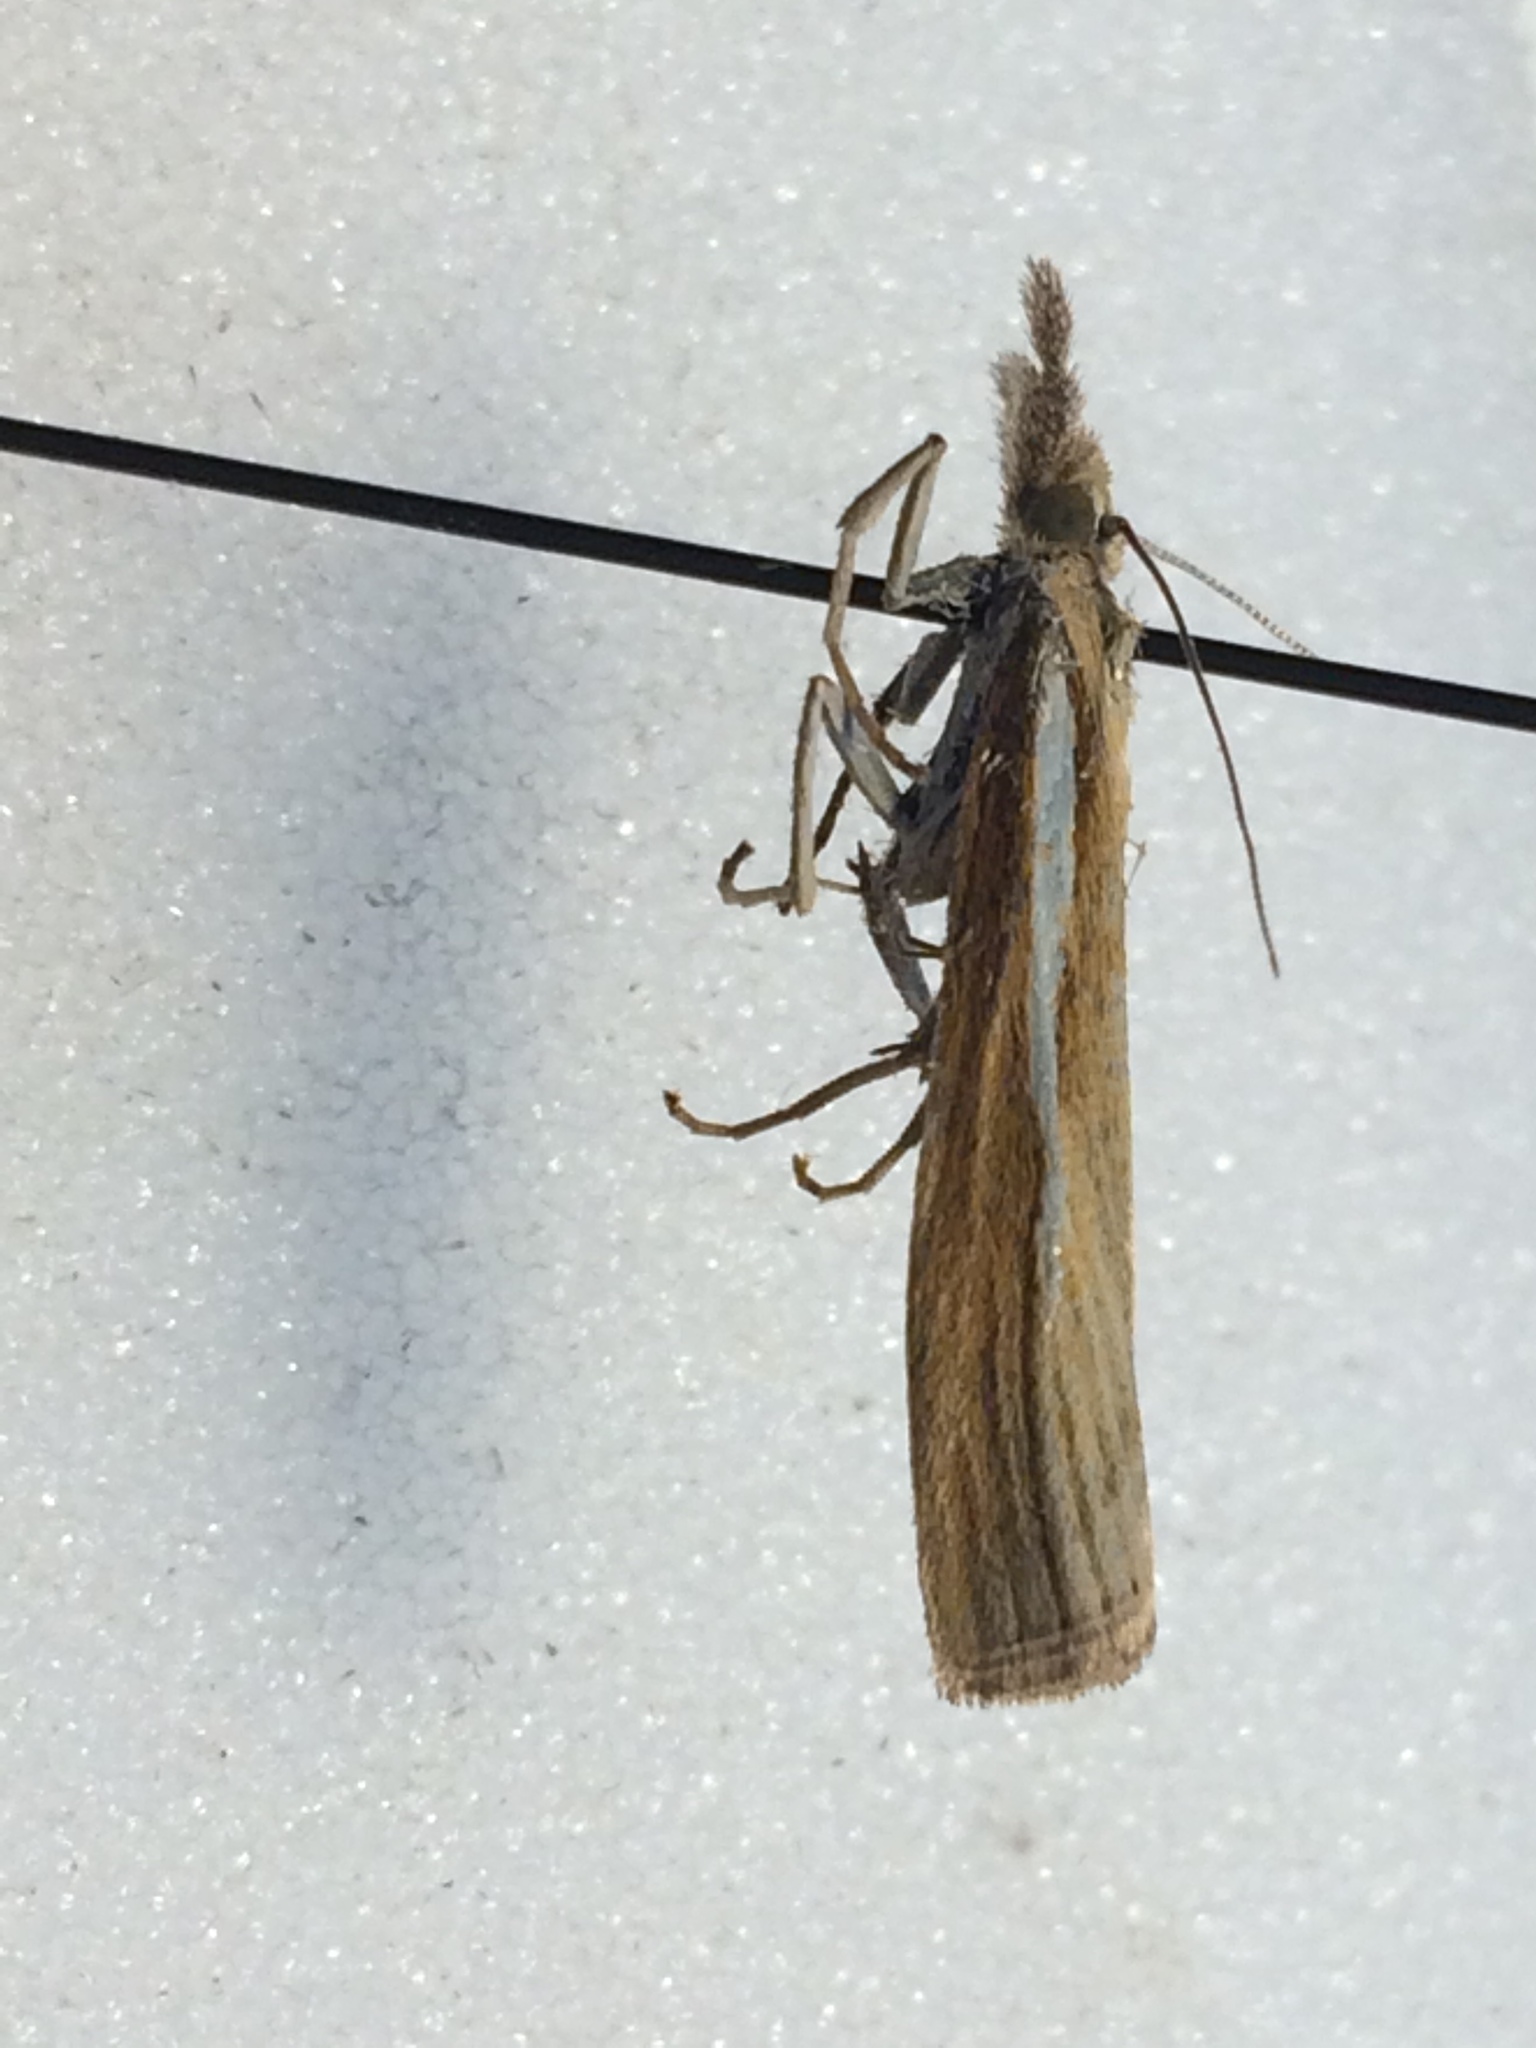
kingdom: Animalia
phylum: Arthropoda
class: Insecta
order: Lepidoptera
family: Crambidae
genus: Agriphila
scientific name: Agriphila tristellus
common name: Common grass-veneer
